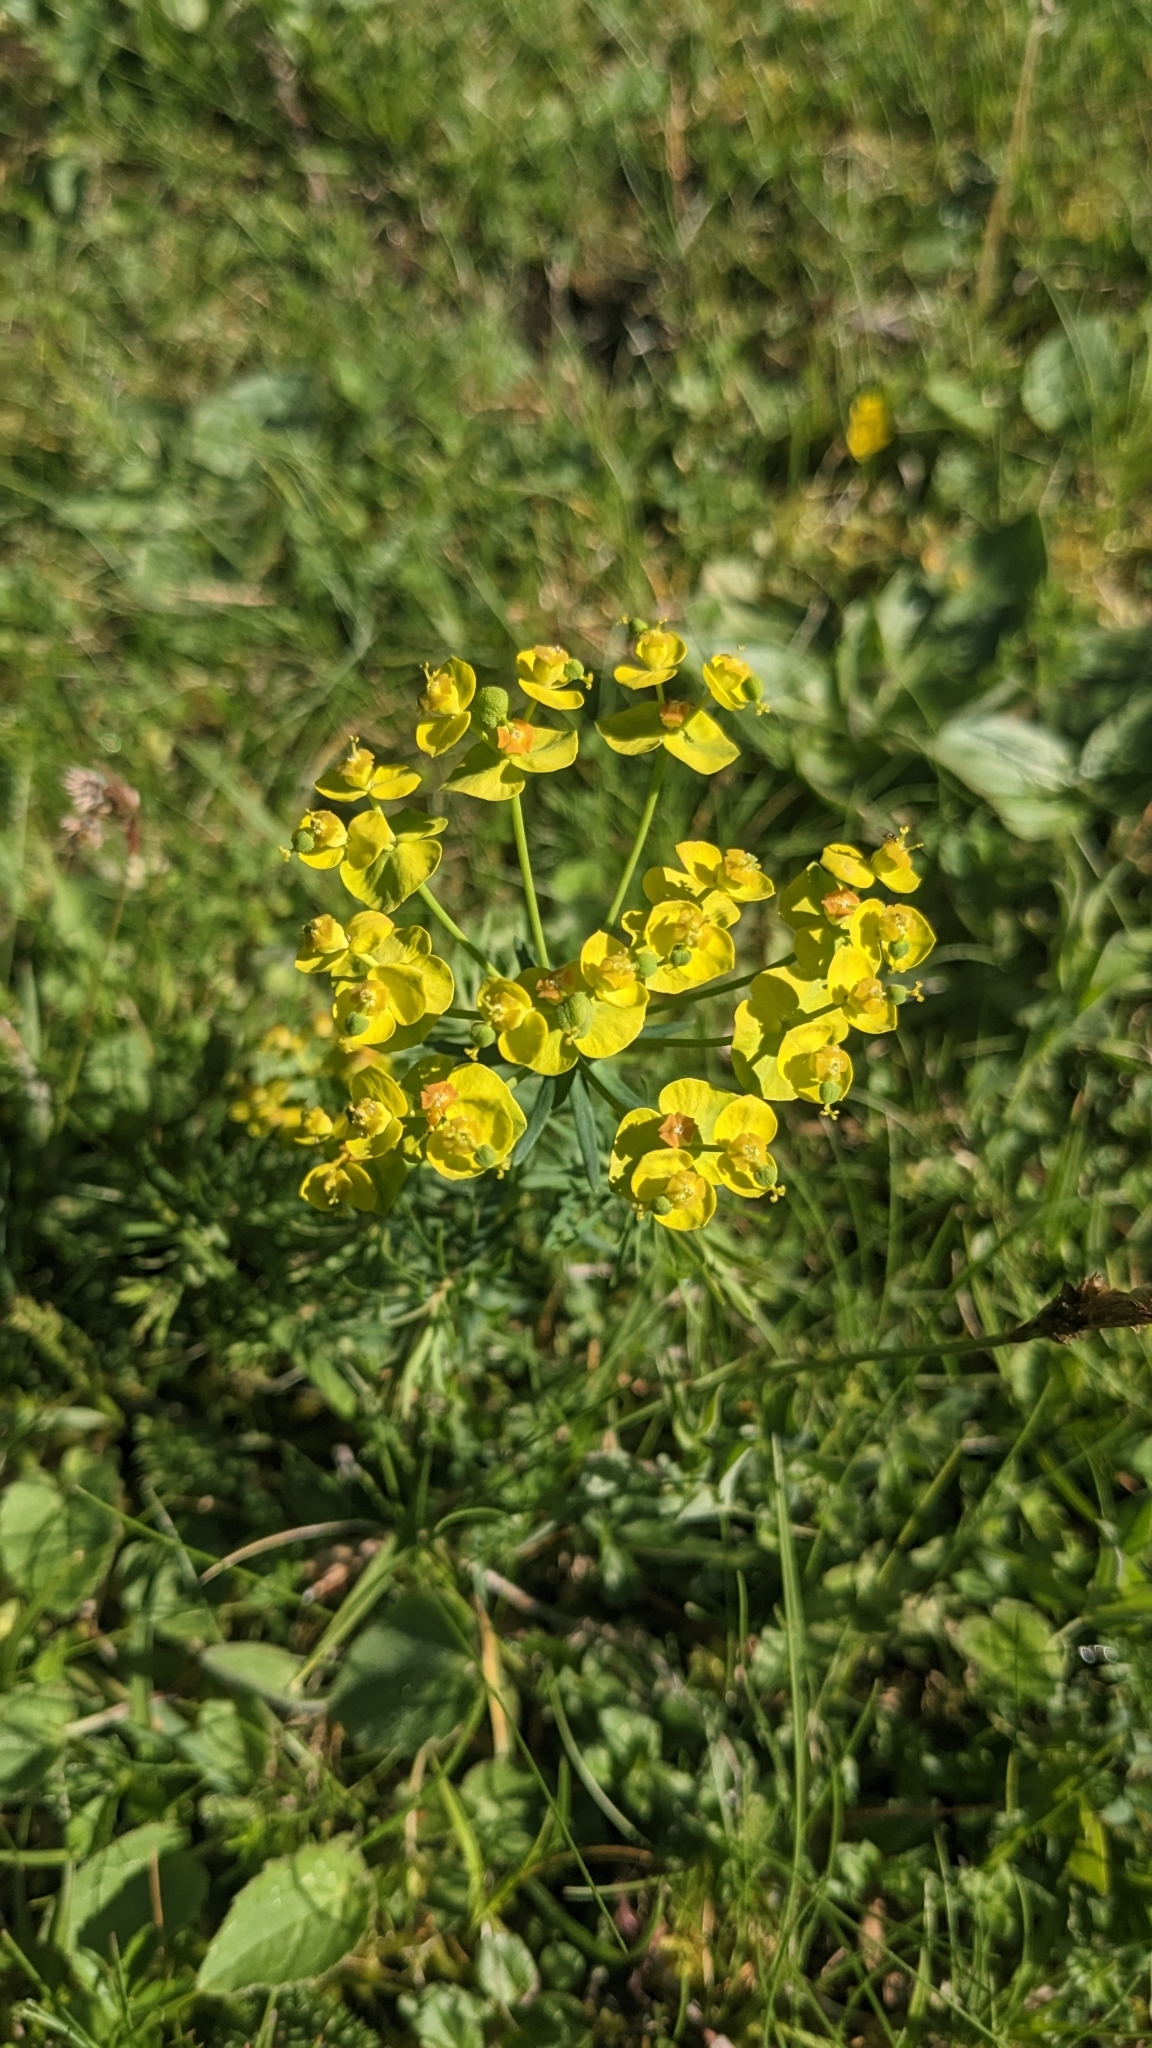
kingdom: Plantae
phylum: Tracheophyta
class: Magnoliopsida
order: Malpighiales
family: Euphorbiaceae
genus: Euphorbia
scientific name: Euphorbia cyparissias
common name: Cypress spurge
